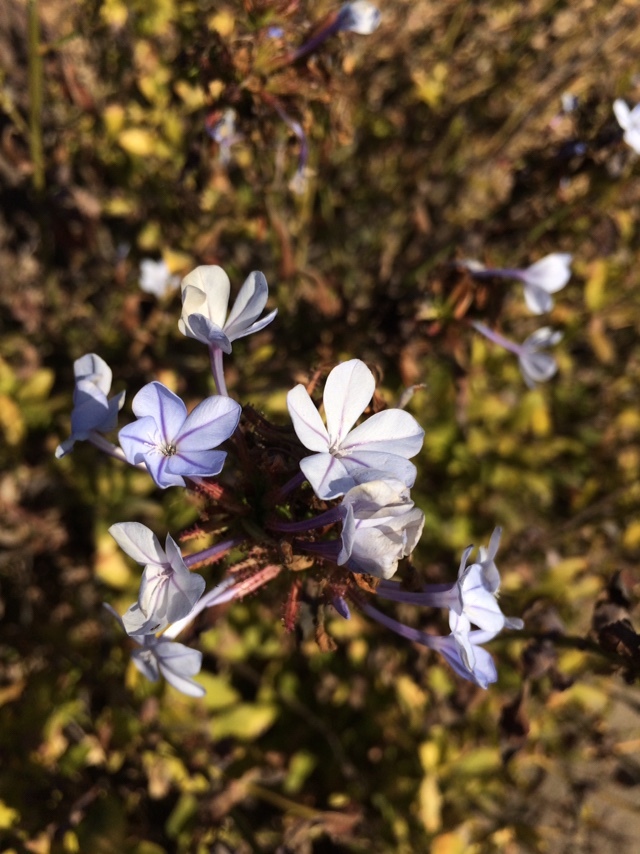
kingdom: Plantae
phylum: Tracheophyta
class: Magnoliopsida
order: Caryophyllales
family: Plumbaginaceae
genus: Plumbago
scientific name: Plumbago auriculata
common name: Cape leadwort
